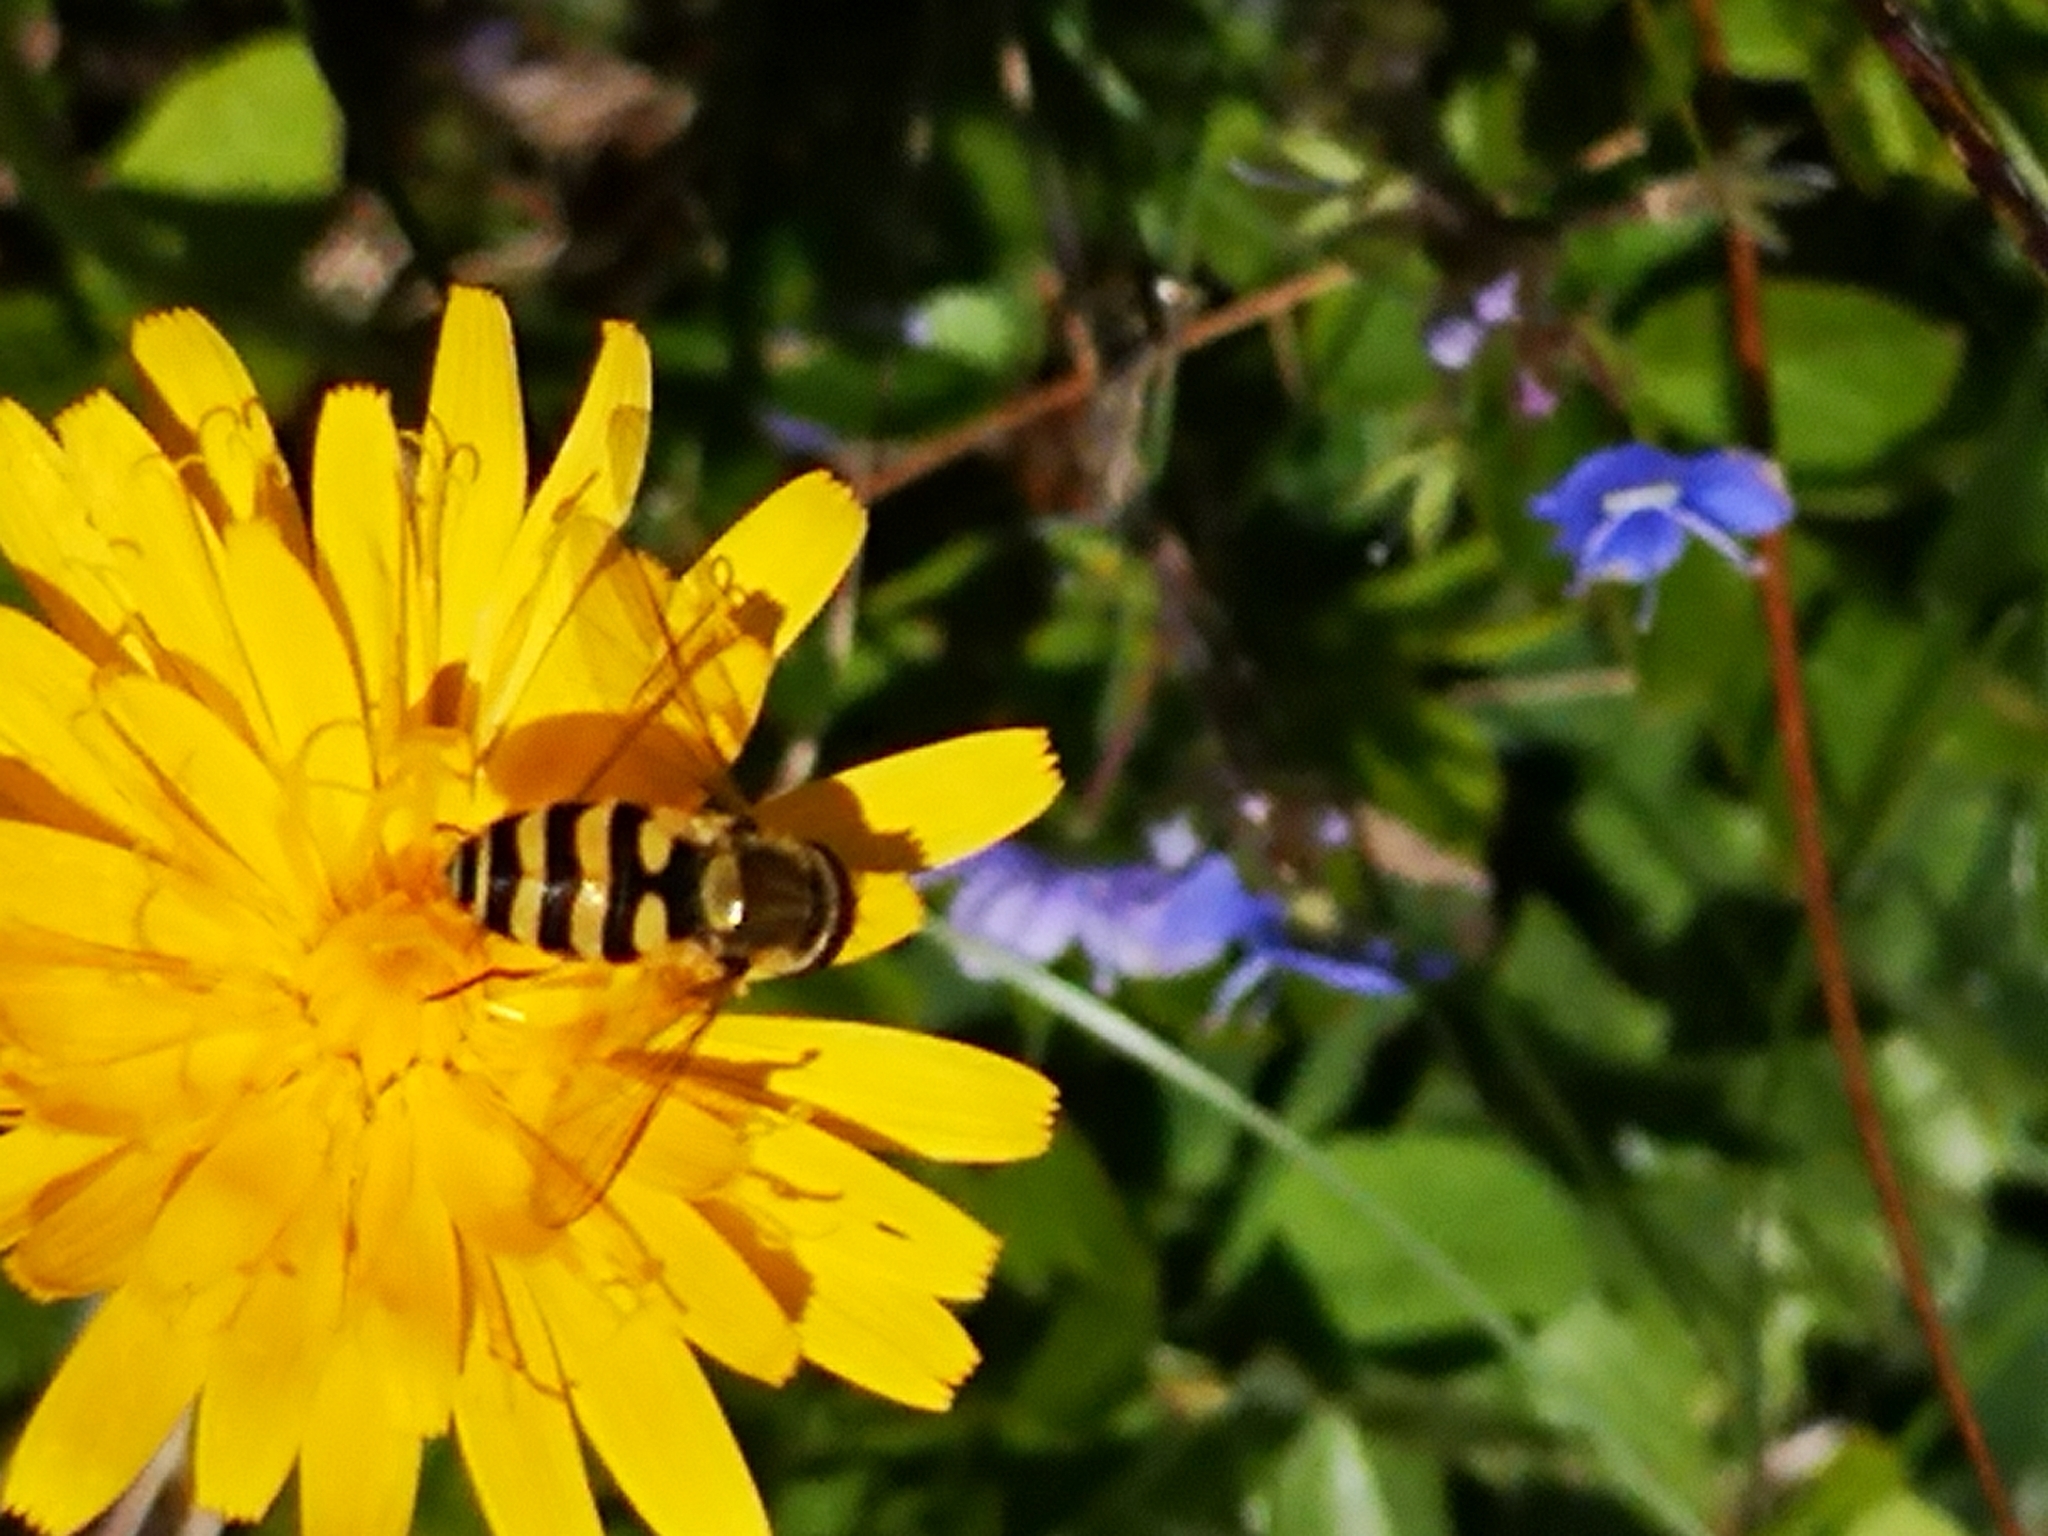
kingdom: Animalia
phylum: Arthropoda
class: Insecta
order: Diptera
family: Syrphidae
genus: Syrphus
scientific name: Syrphus
